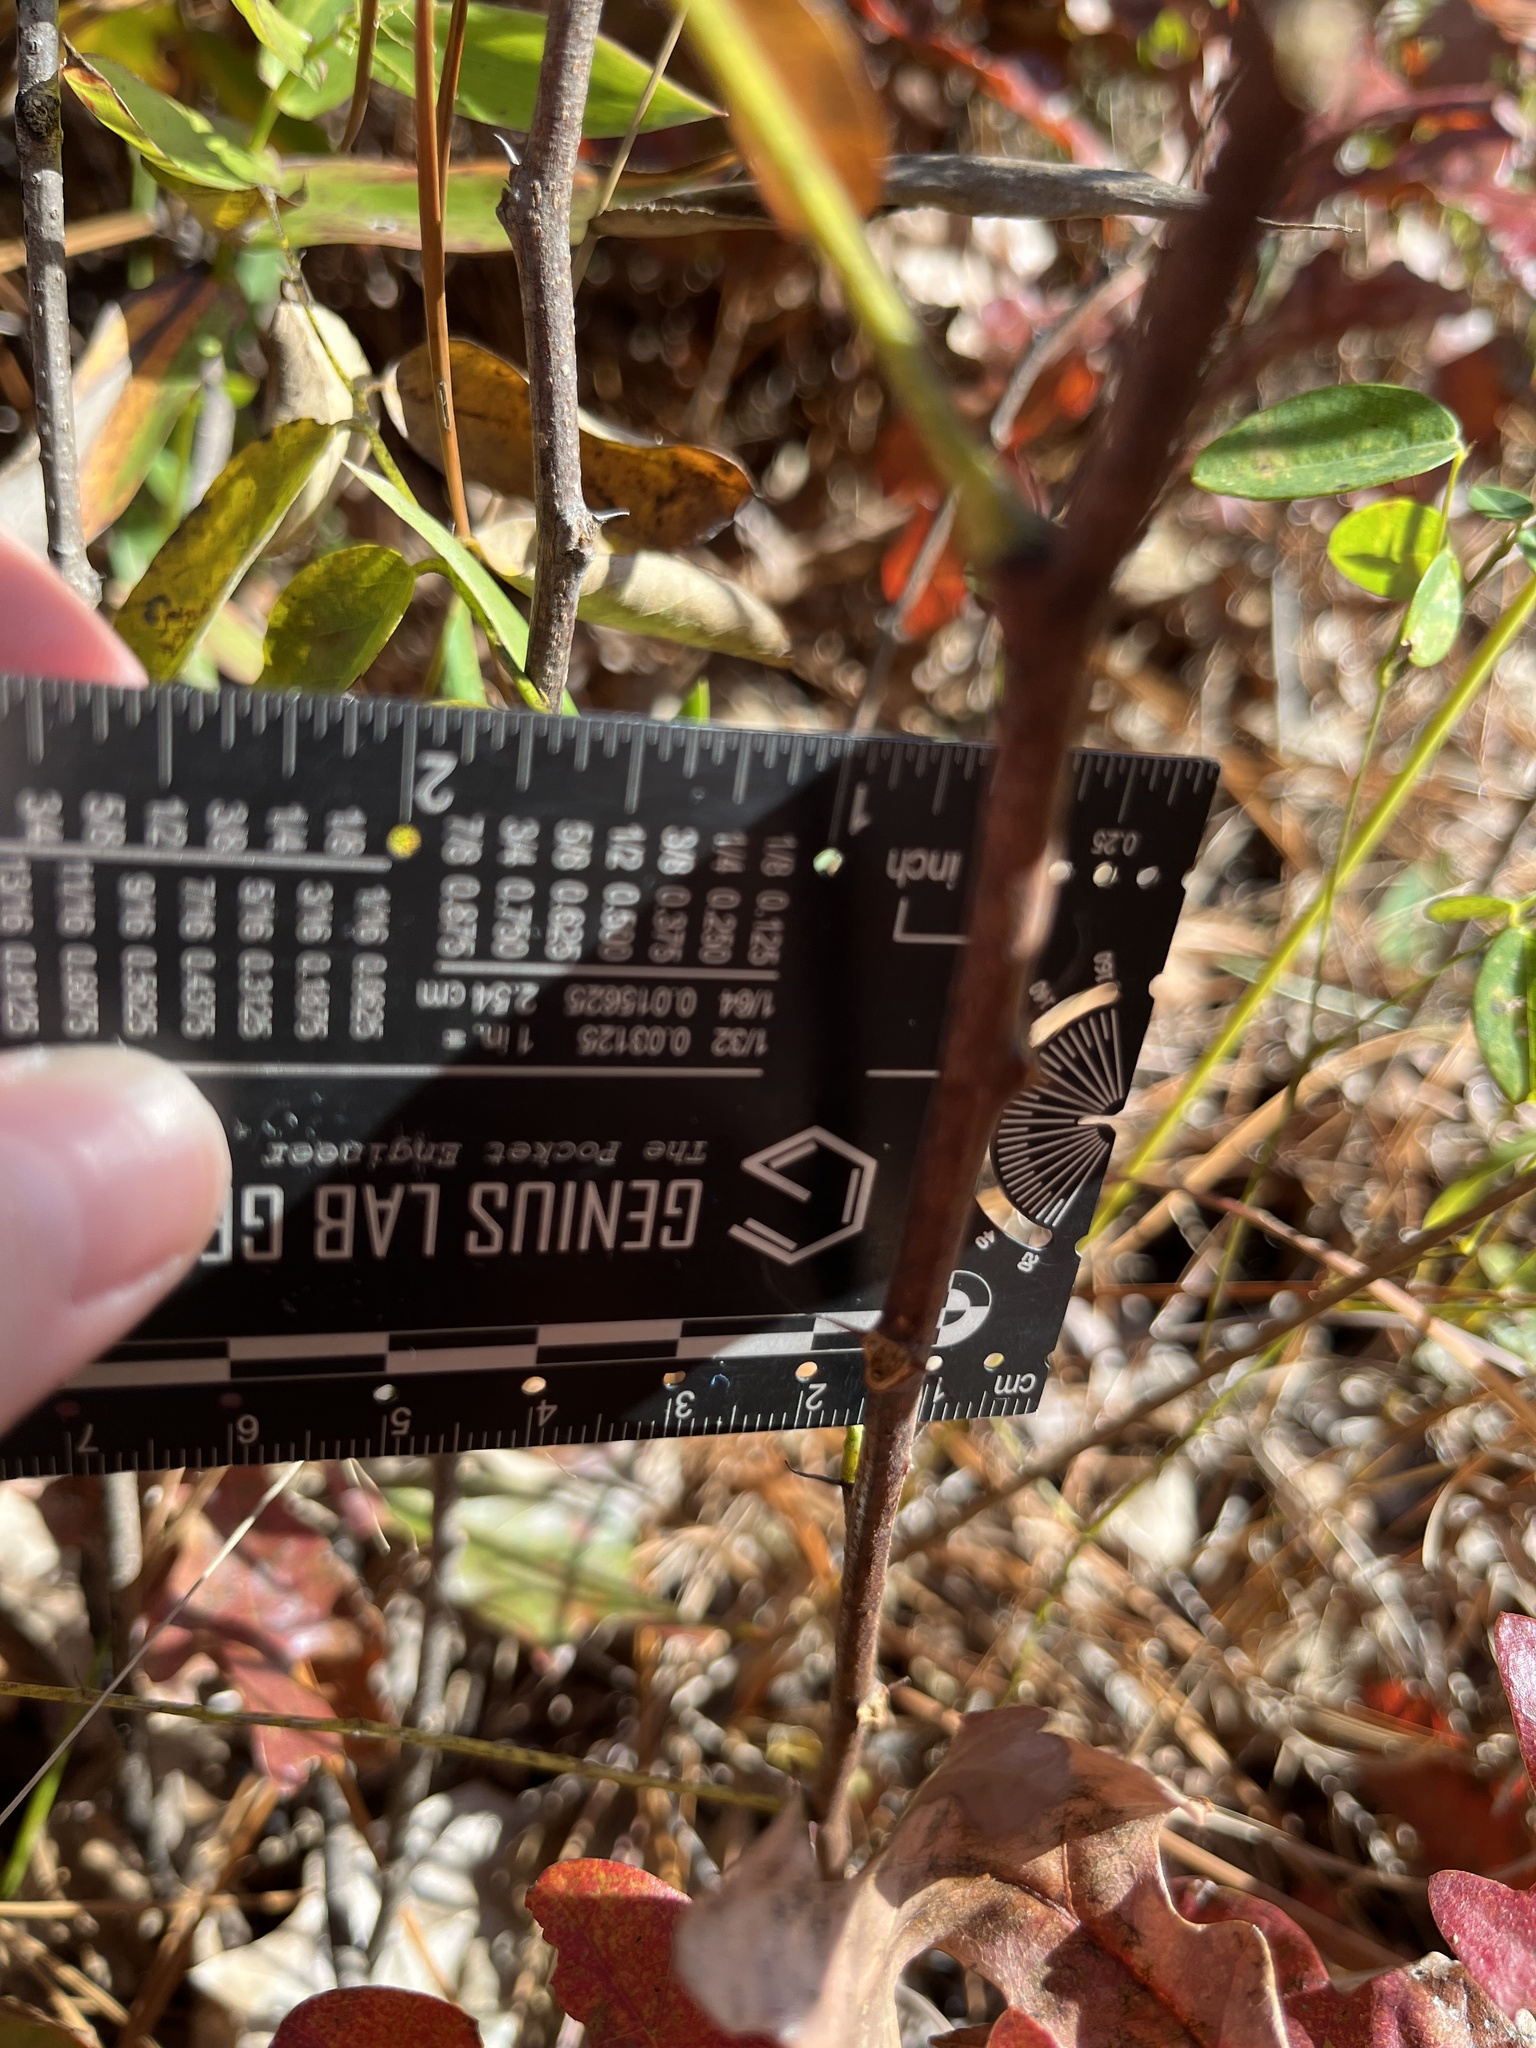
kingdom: Plantae
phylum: Tracheophyta
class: Magnoliopsida
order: Fabales
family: Fabaceae
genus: Robinia
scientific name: Robinia hispida
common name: Bristly locust
